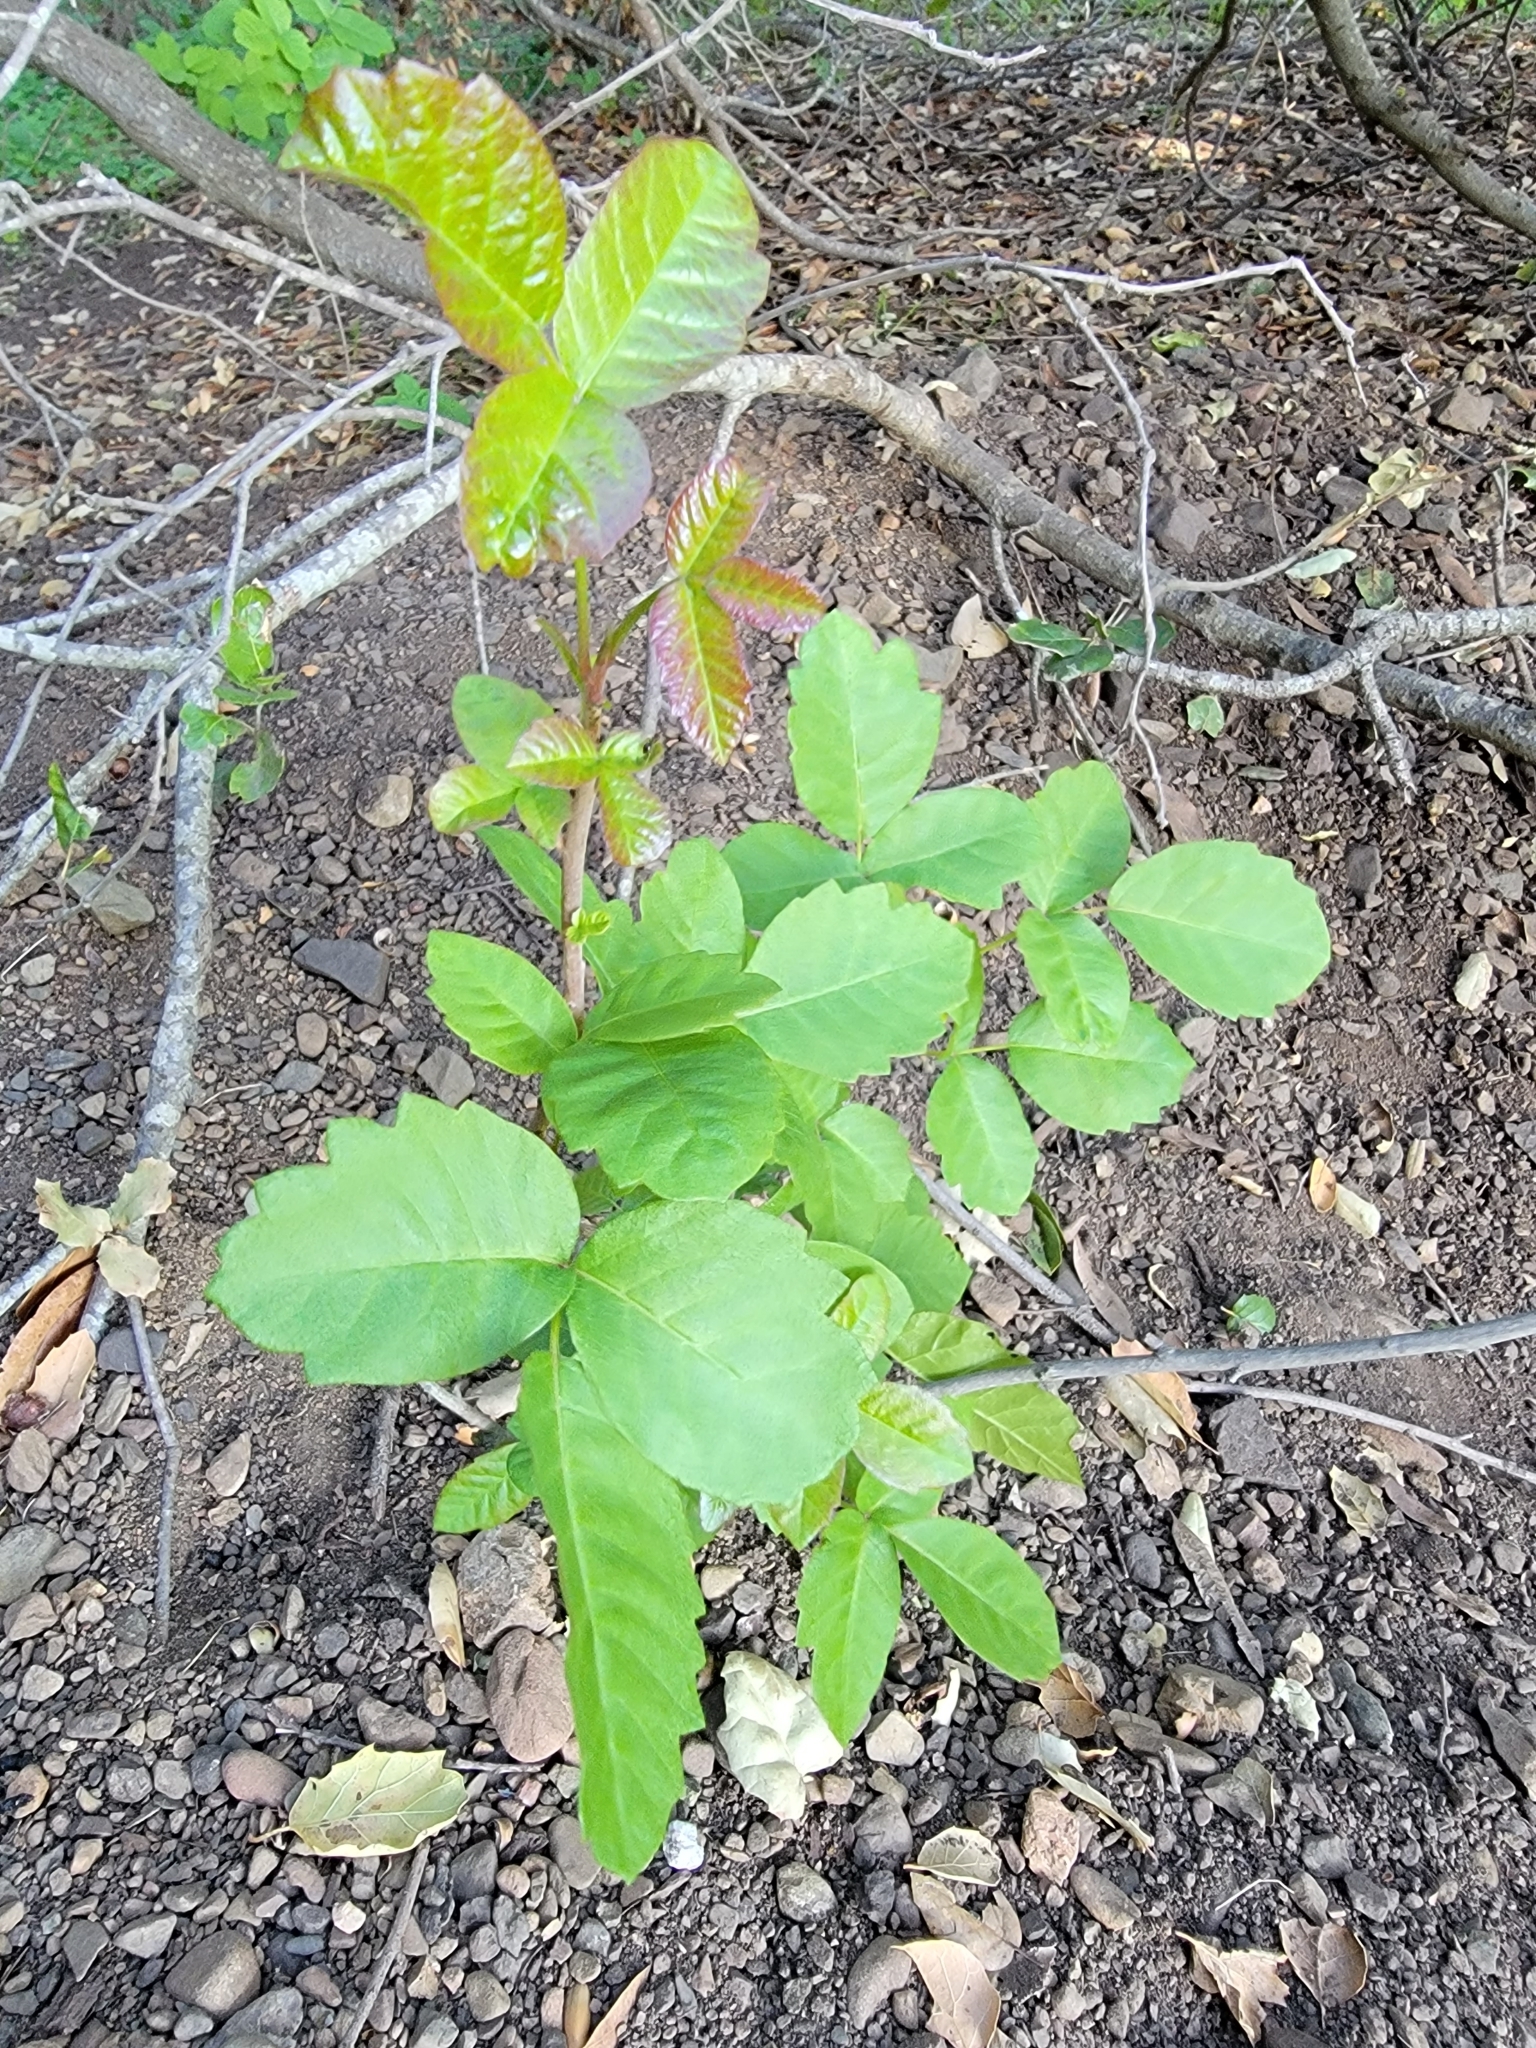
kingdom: Plantae
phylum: Tracheophyta
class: Magnoliopsida
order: Sapindales
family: Anacardiaceae
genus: Toxicodendron
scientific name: Toxicodendron diversilobum
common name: Pacific poison-oak
